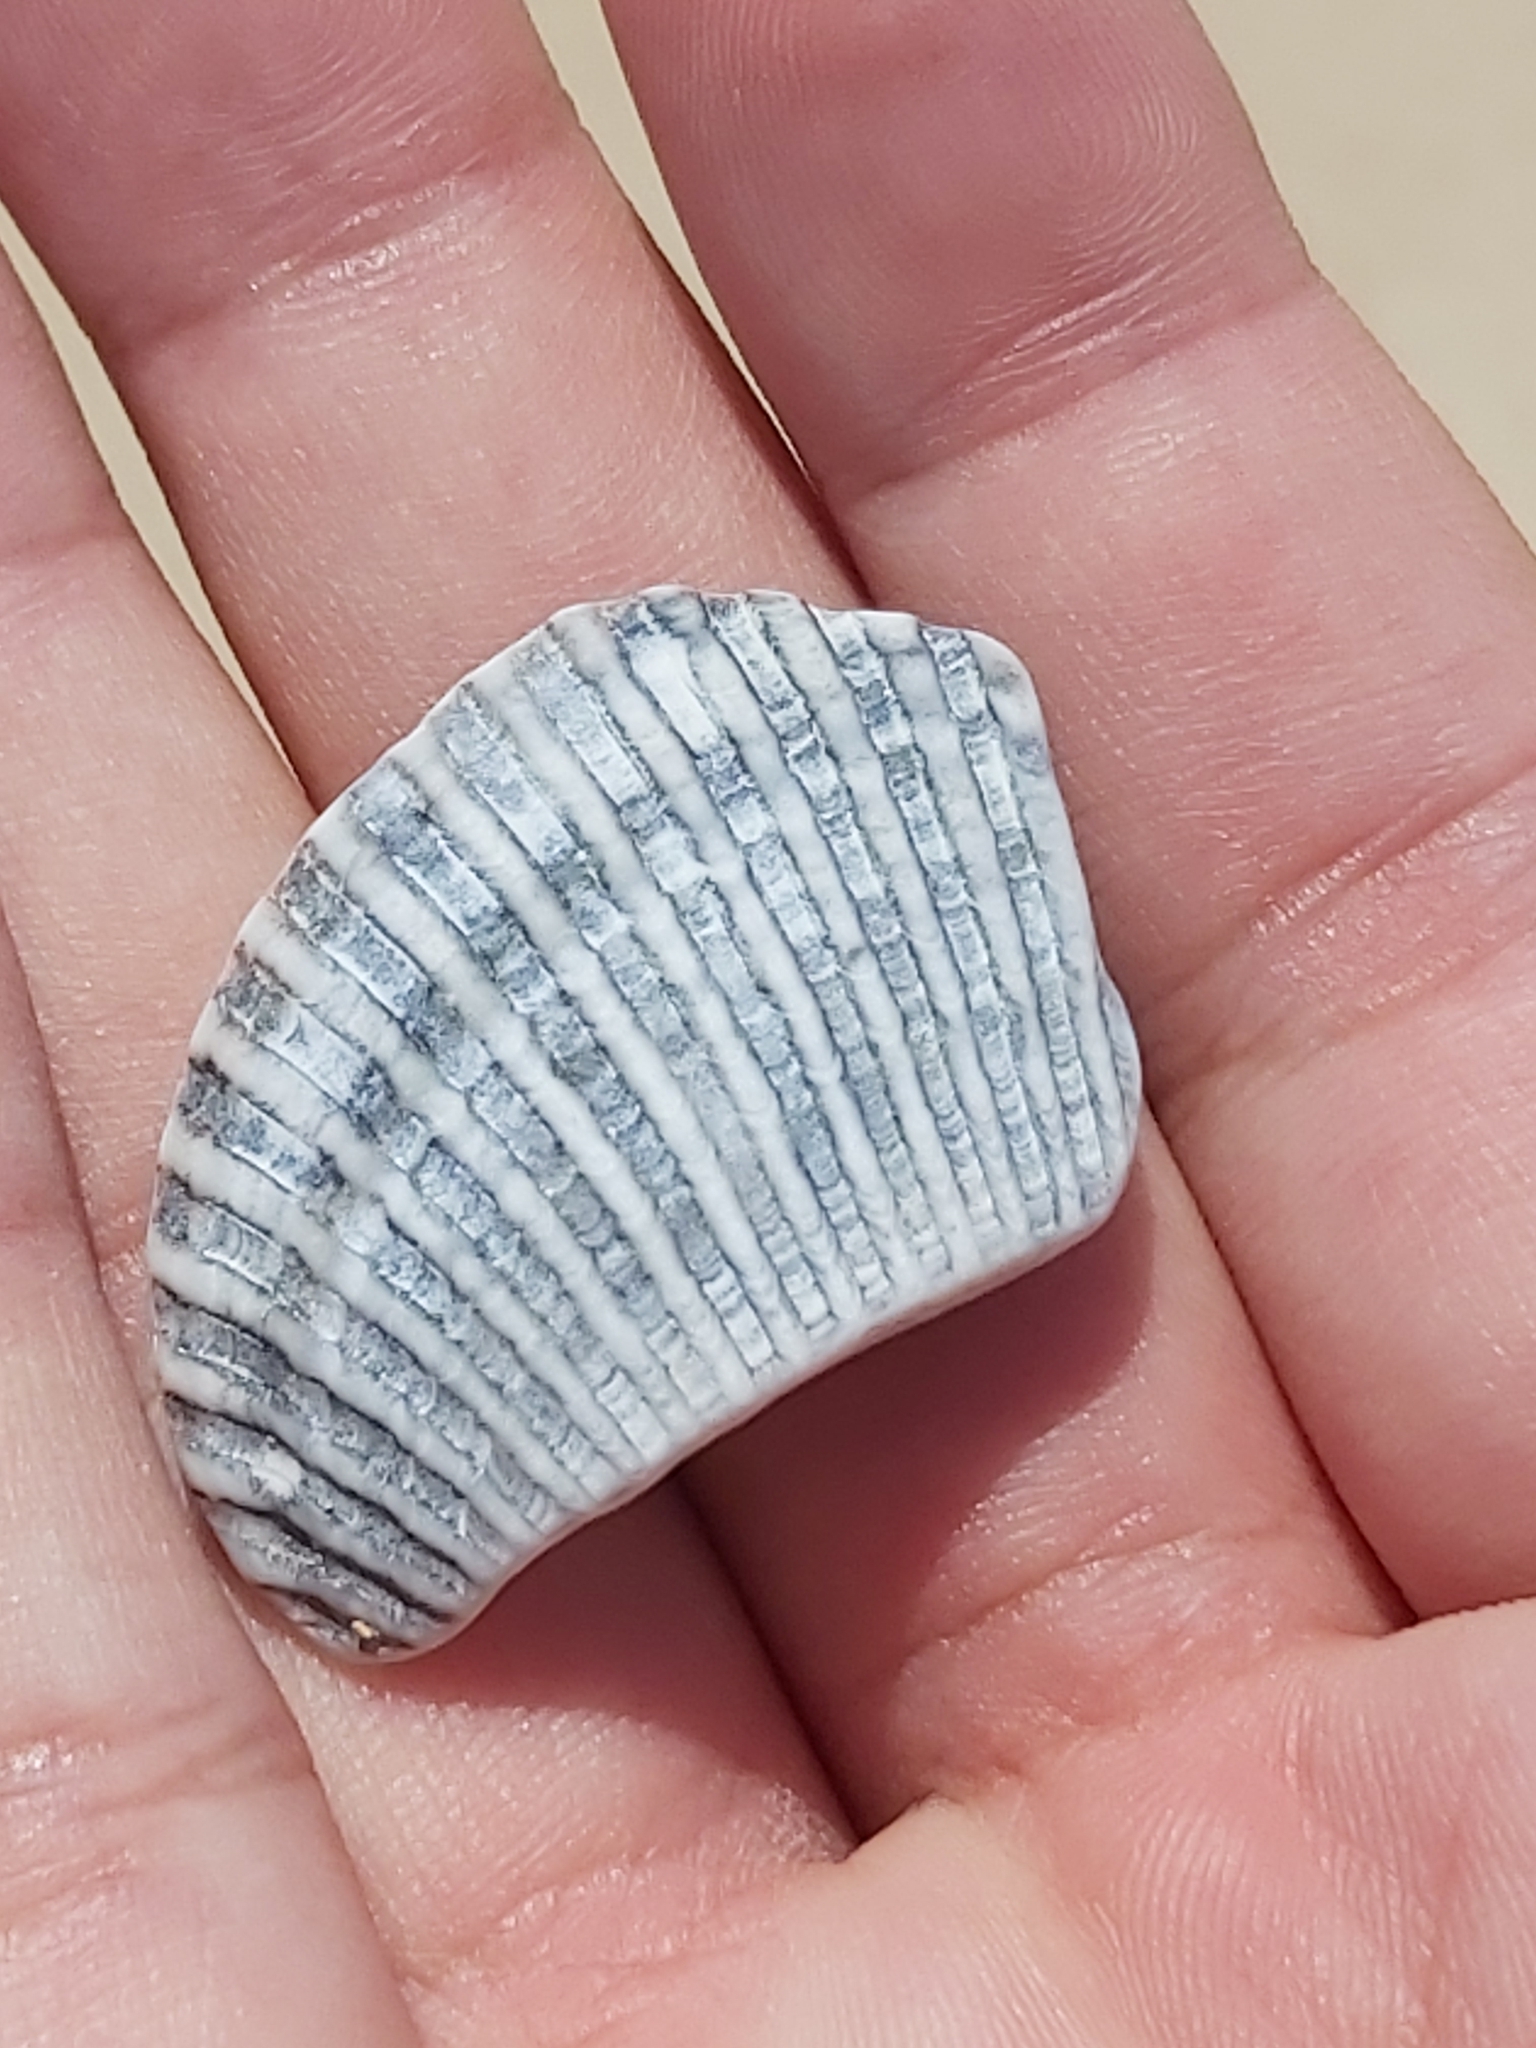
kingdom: Animalia
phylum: Mollusca
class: Bivalvia
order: Arcida
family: Arcidae
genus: Anadara
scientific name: Anadara trapezia
